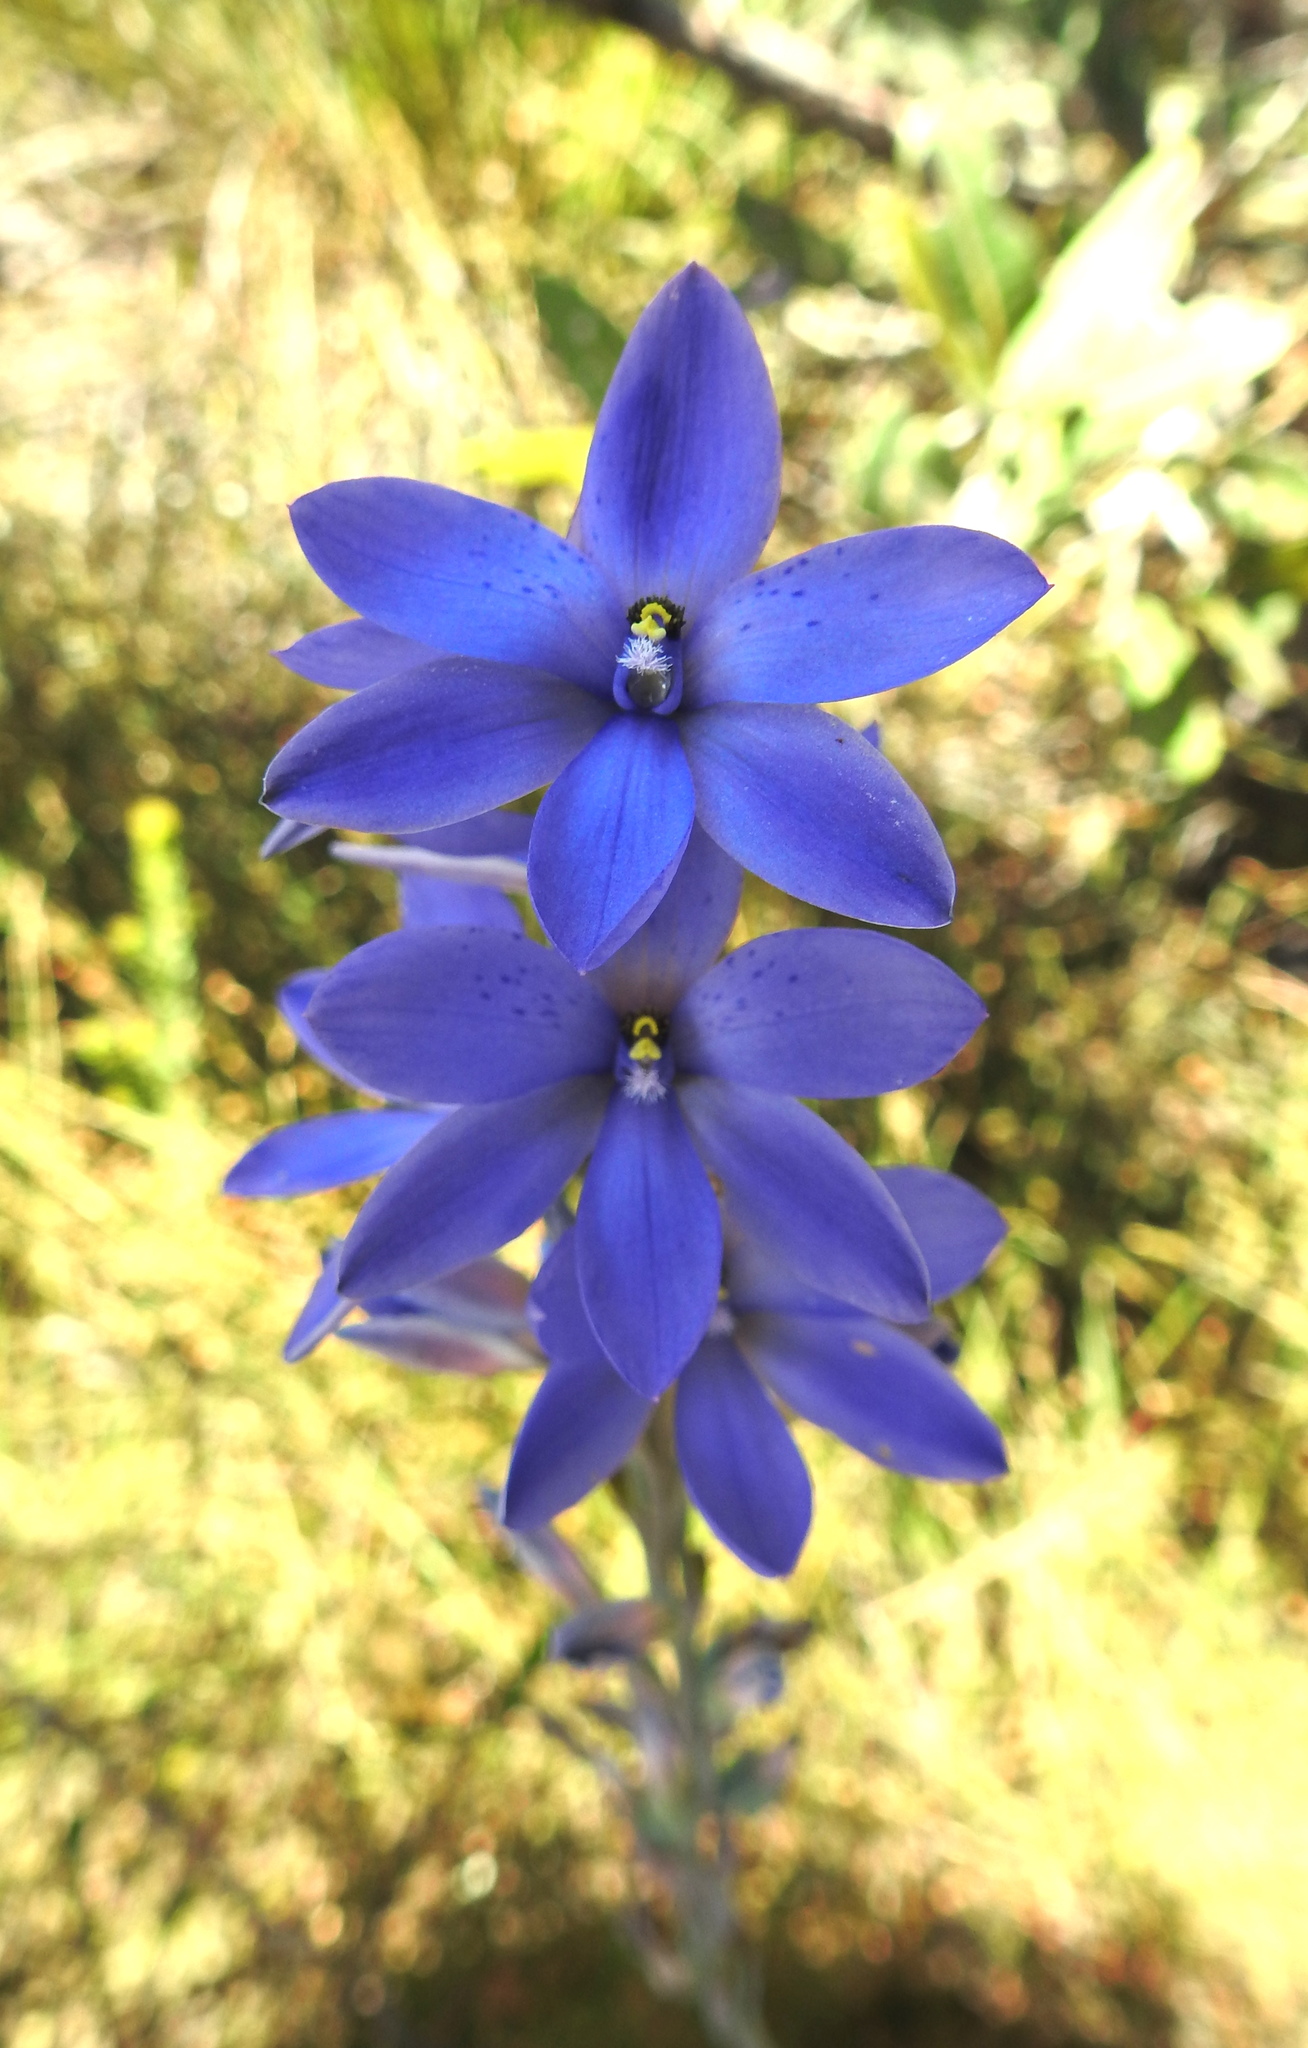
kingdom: Plantae
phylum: Tracheophyta
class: Liliopsida
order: Asparagales
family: Orchidaceae
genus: Thelymitra
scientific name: Thelymitra ixioides
